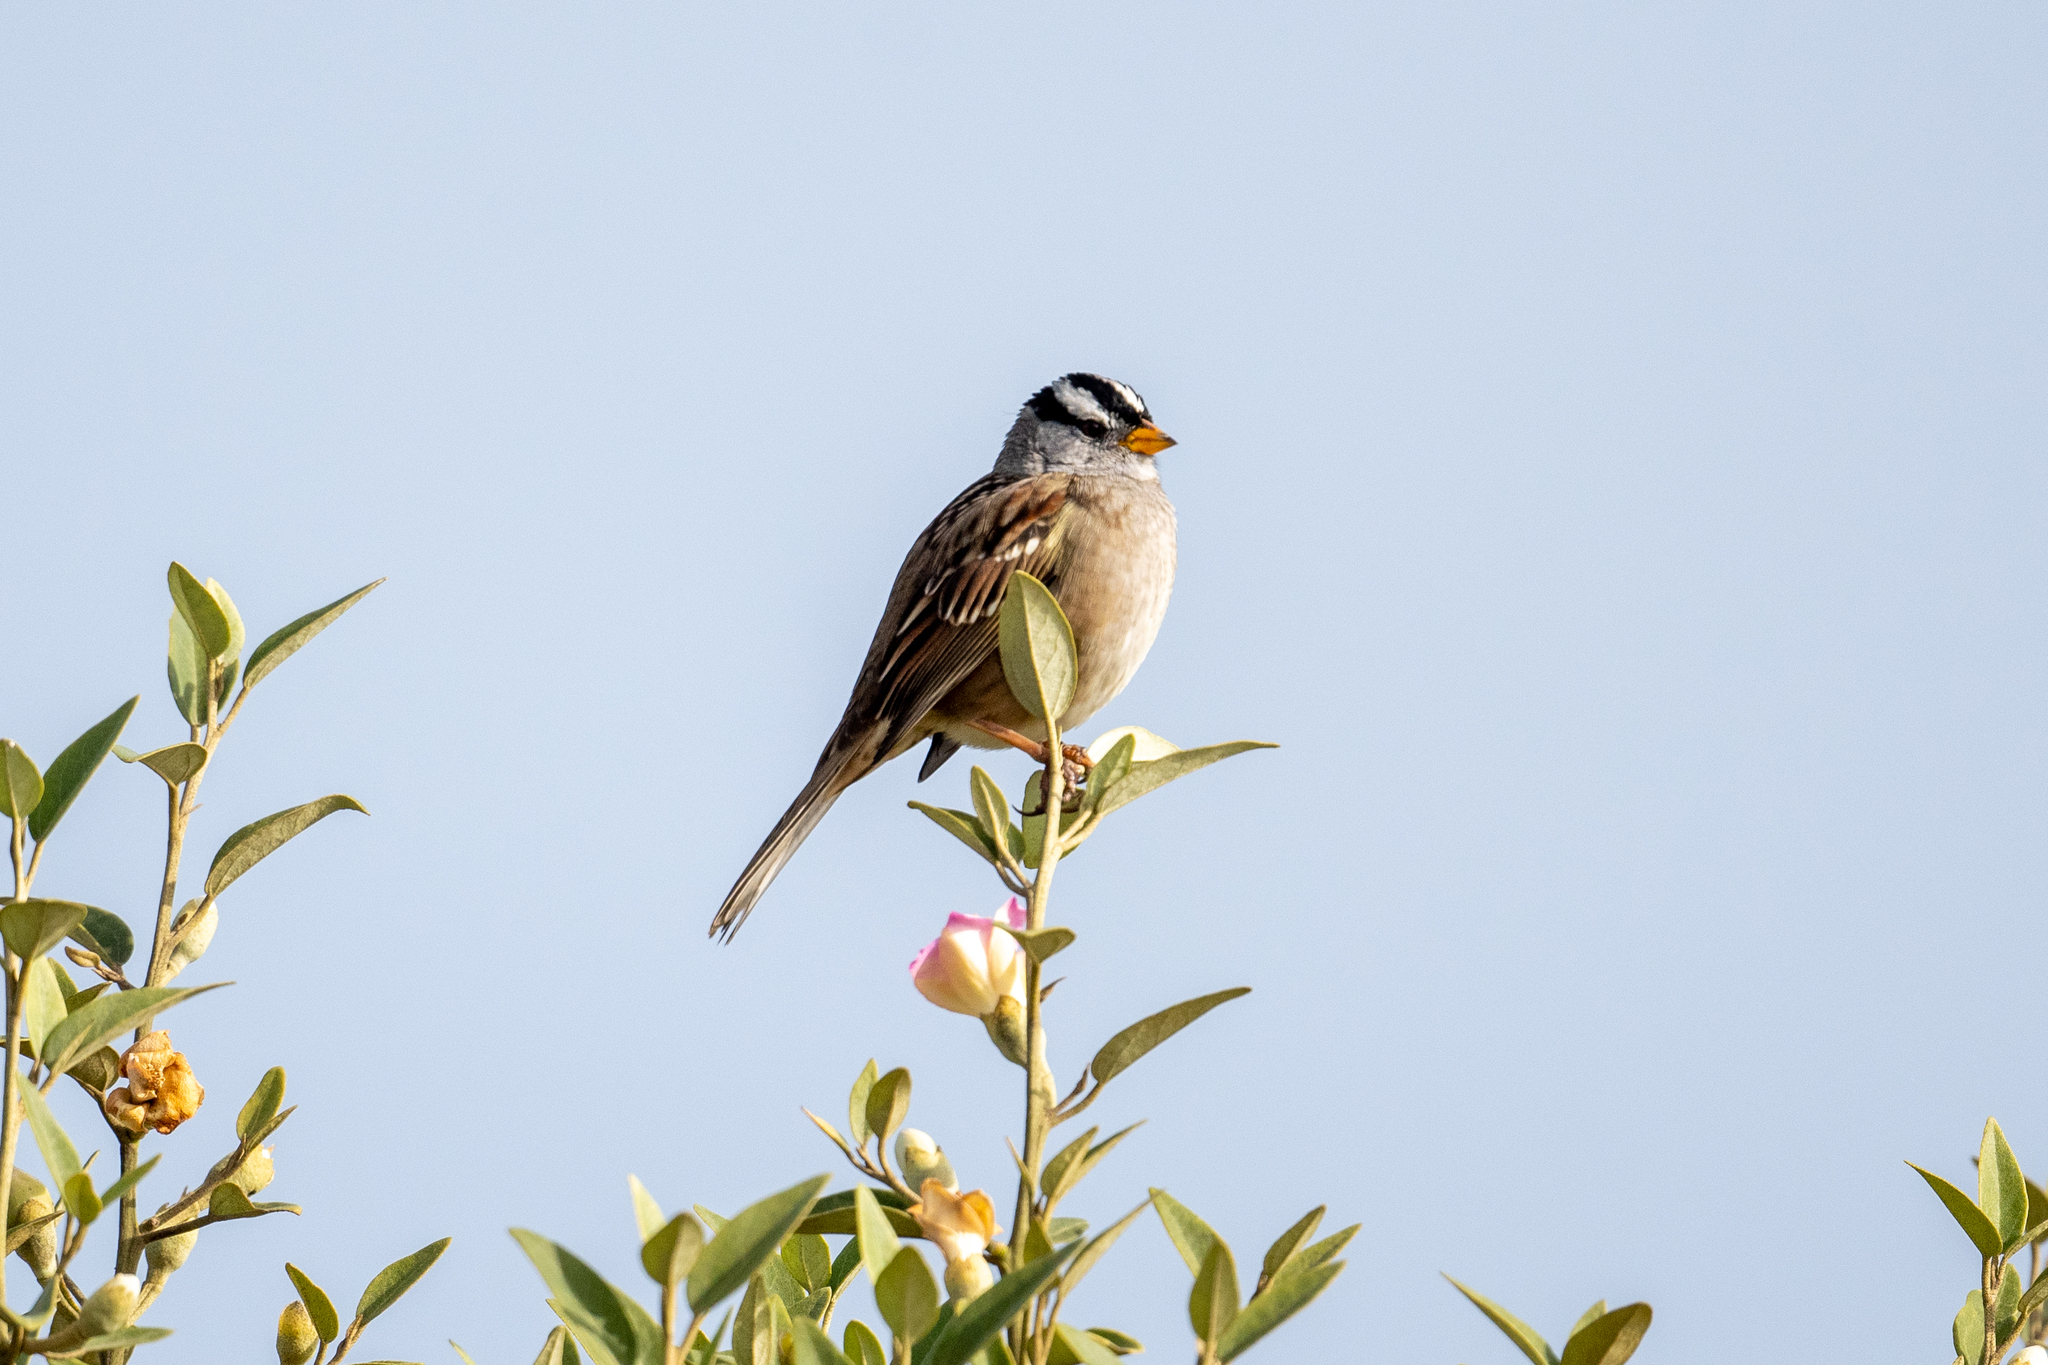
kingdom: Animalia
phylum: Chordata
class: Aves
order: Passeriformes
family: Passerellidae
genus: Zonotrichia
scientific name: Zonotrichia leucophrys
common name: White-crowned sparrow
